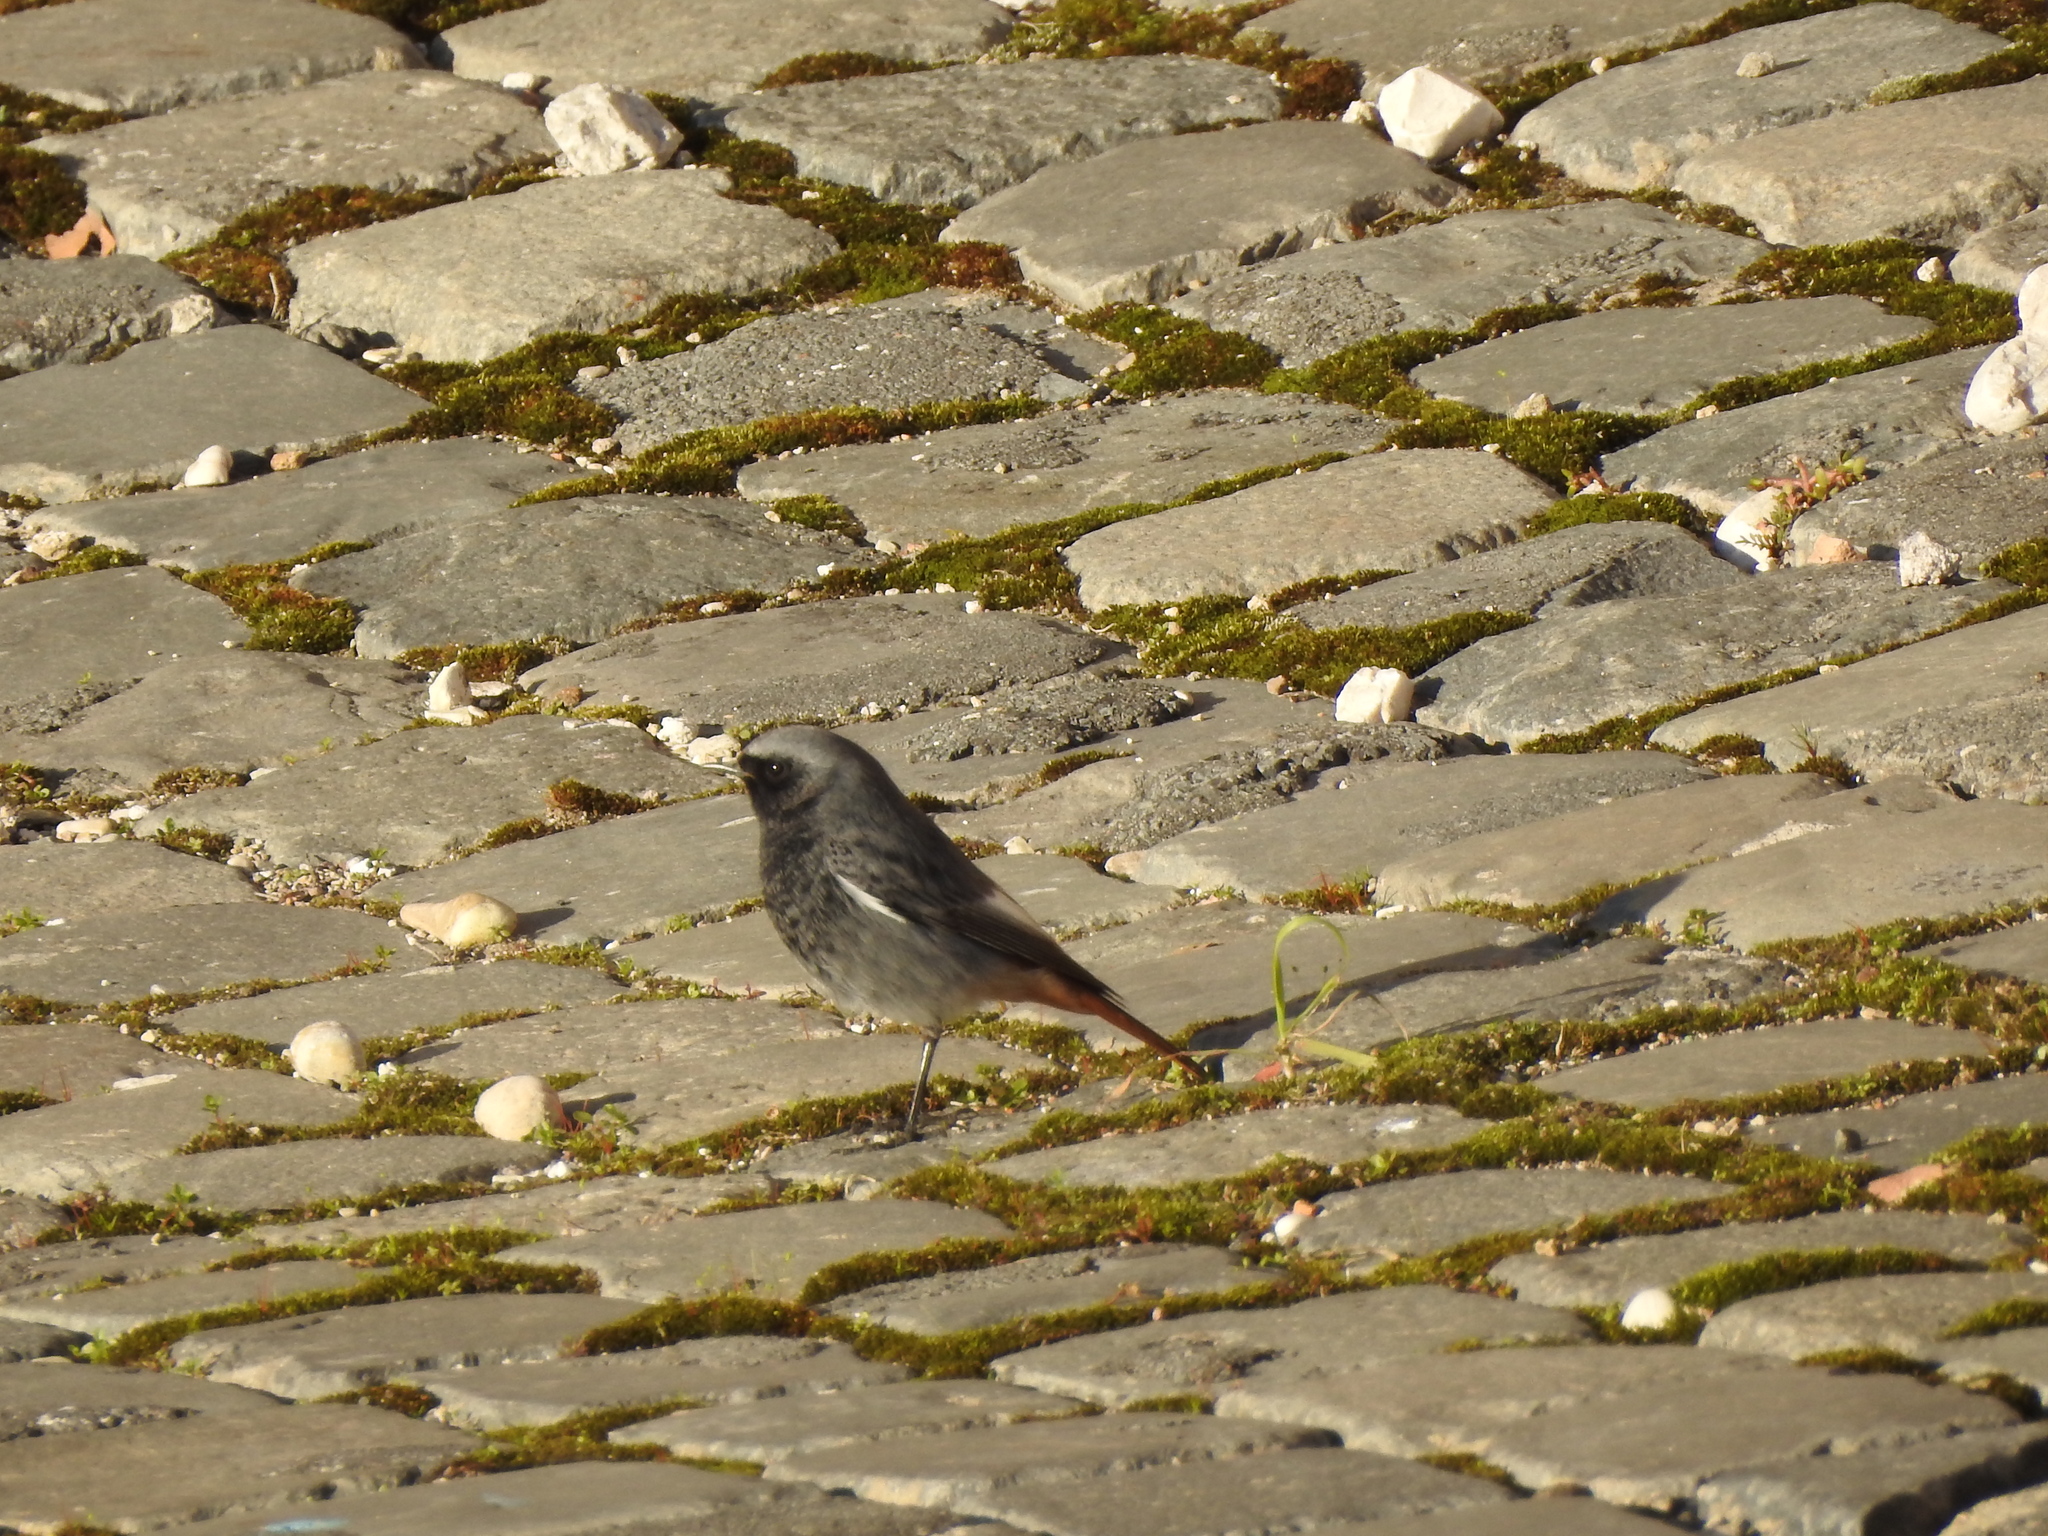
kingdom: Animalia
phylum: Chordata
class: Aves
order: Passeriformes
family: Muscicapidae
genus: Phoenicurus
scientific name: Phoenicurus ochruros
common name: Black redstart
